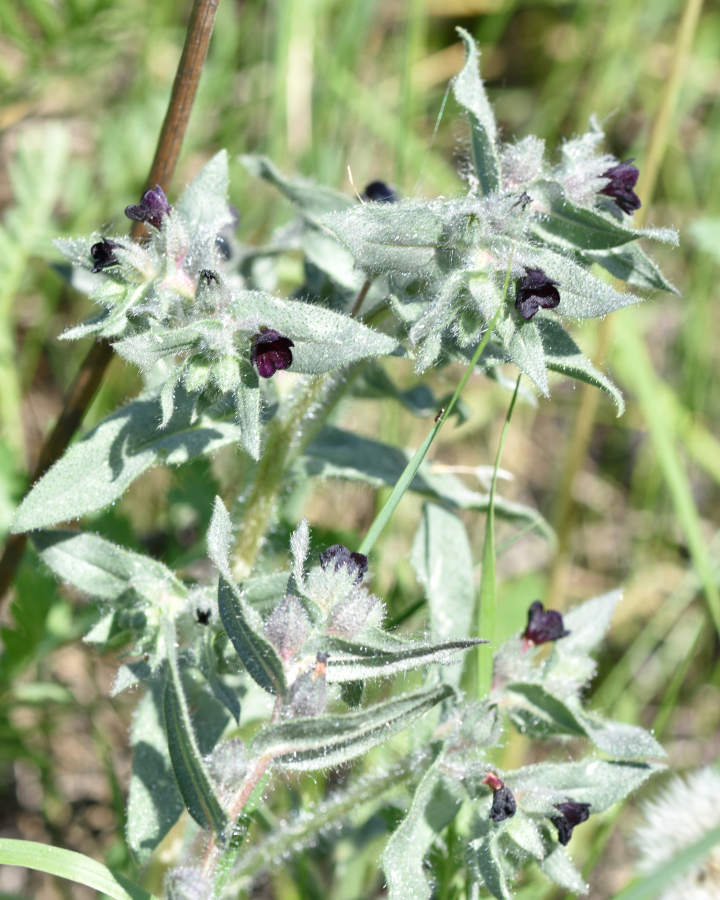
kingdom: Plantae
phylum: Tracheophyta
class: Magnoliopsida
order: Boraginales
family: Boraginaceae
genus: Nonea
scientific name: Nonea pulla
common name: Brown nonea
